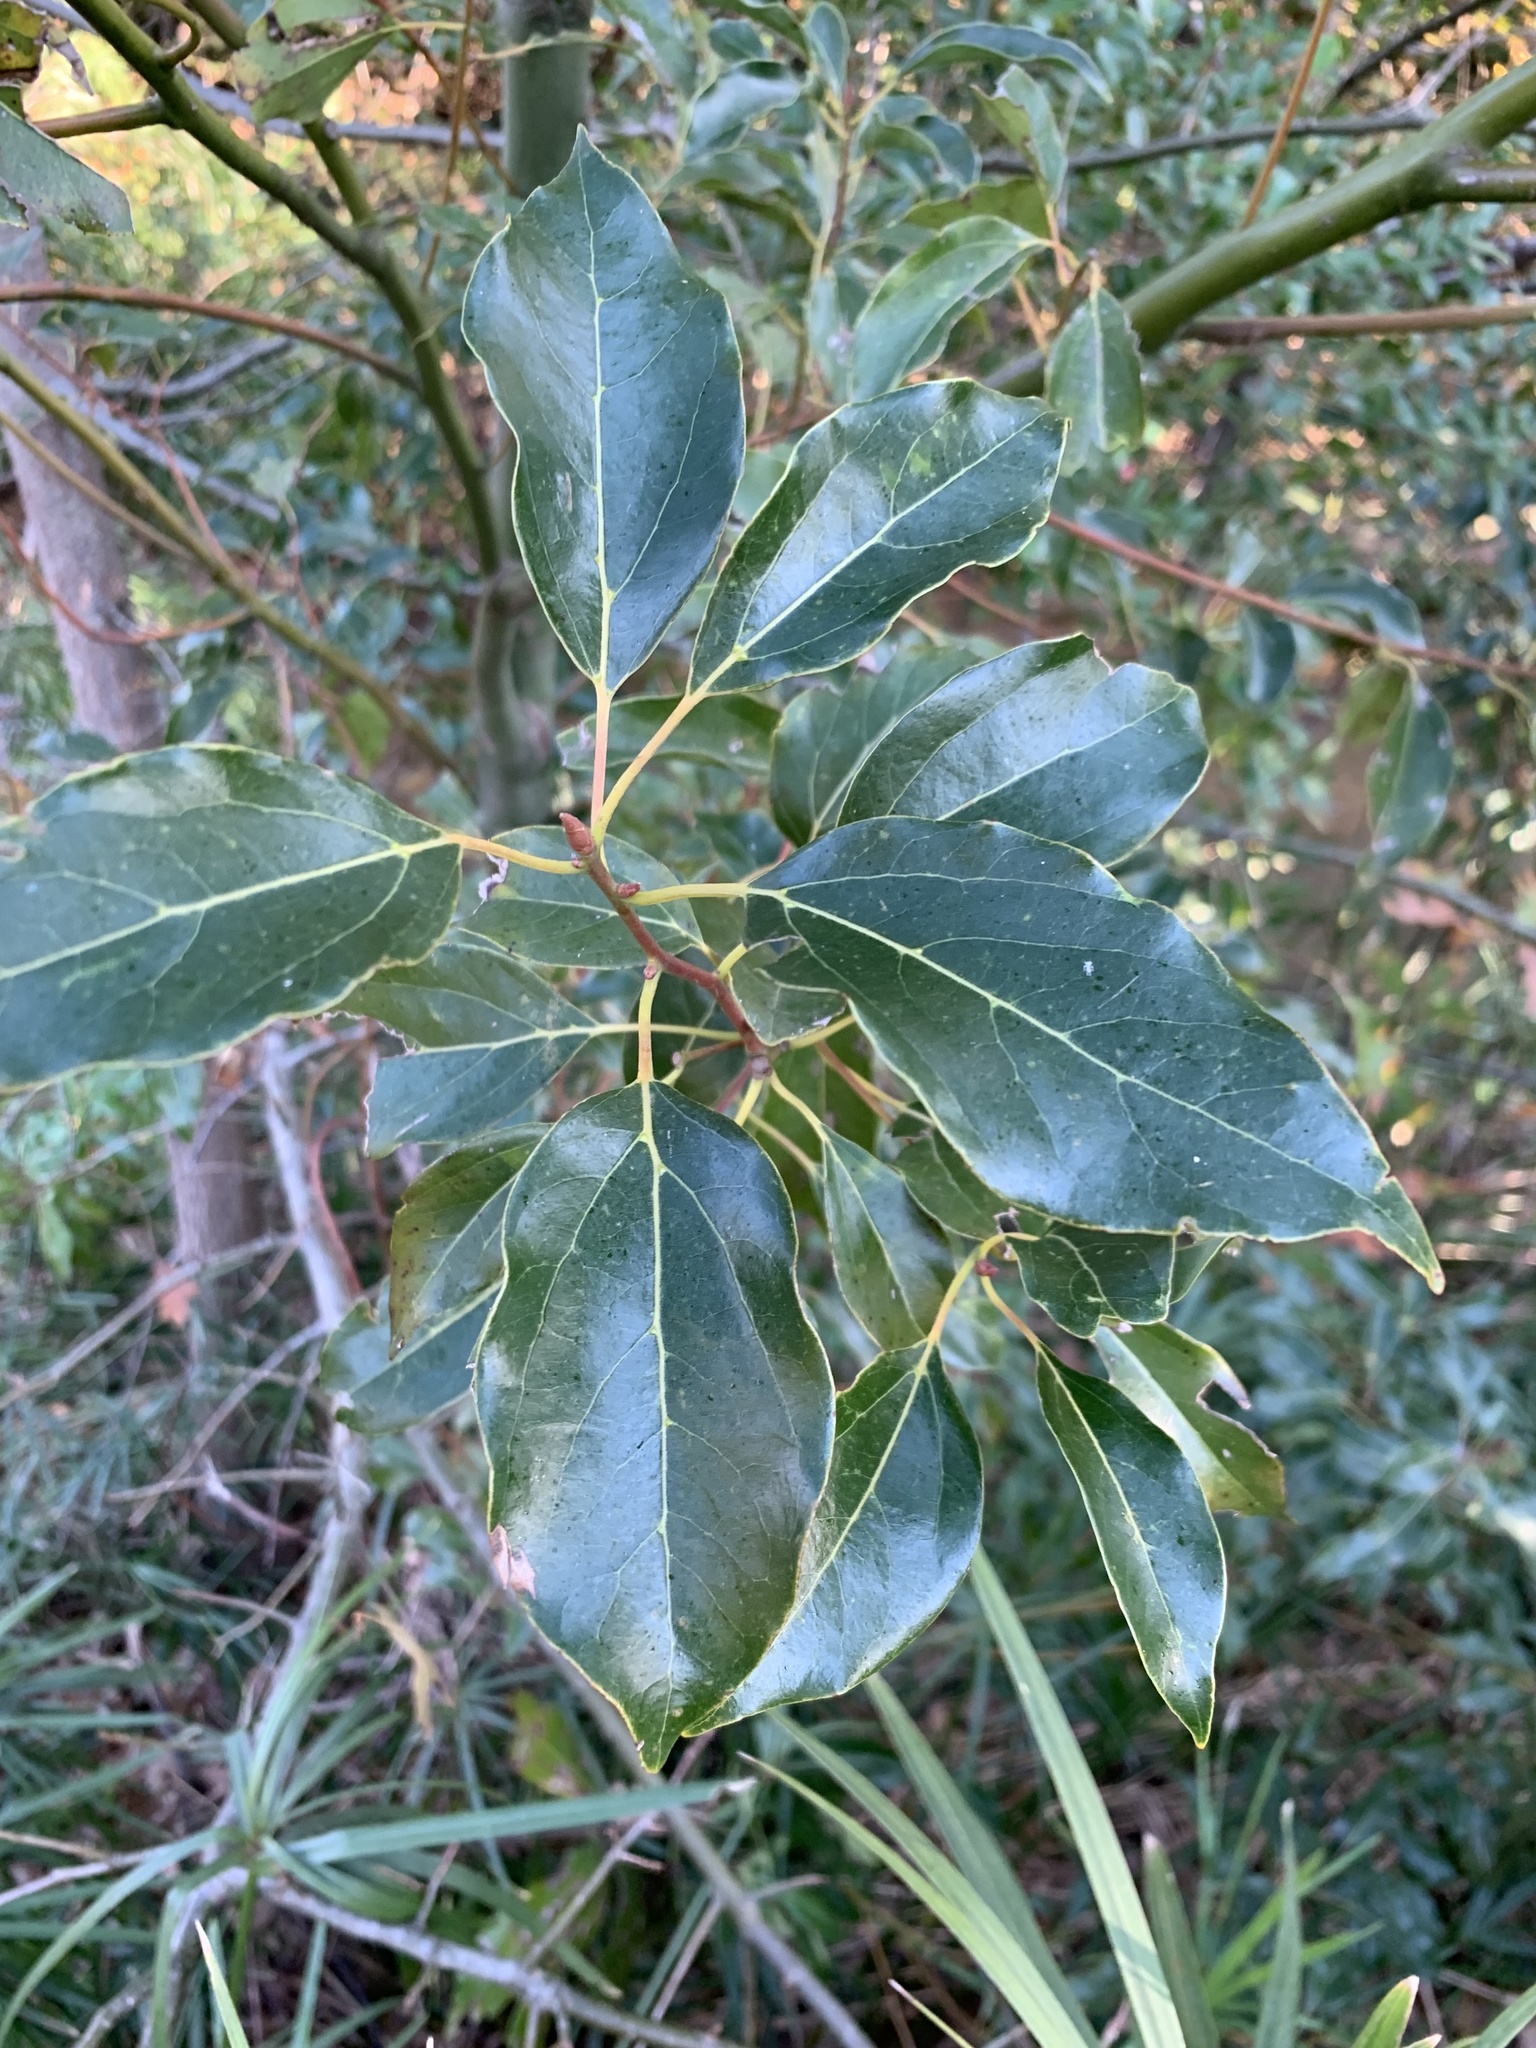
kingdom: Plantae
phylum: Tracheophyta
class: Magnoliopsida
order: Laurales
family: Lauraceae
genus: Cinnamomum
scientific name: Cinnamomum camphora
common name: Camphortree
